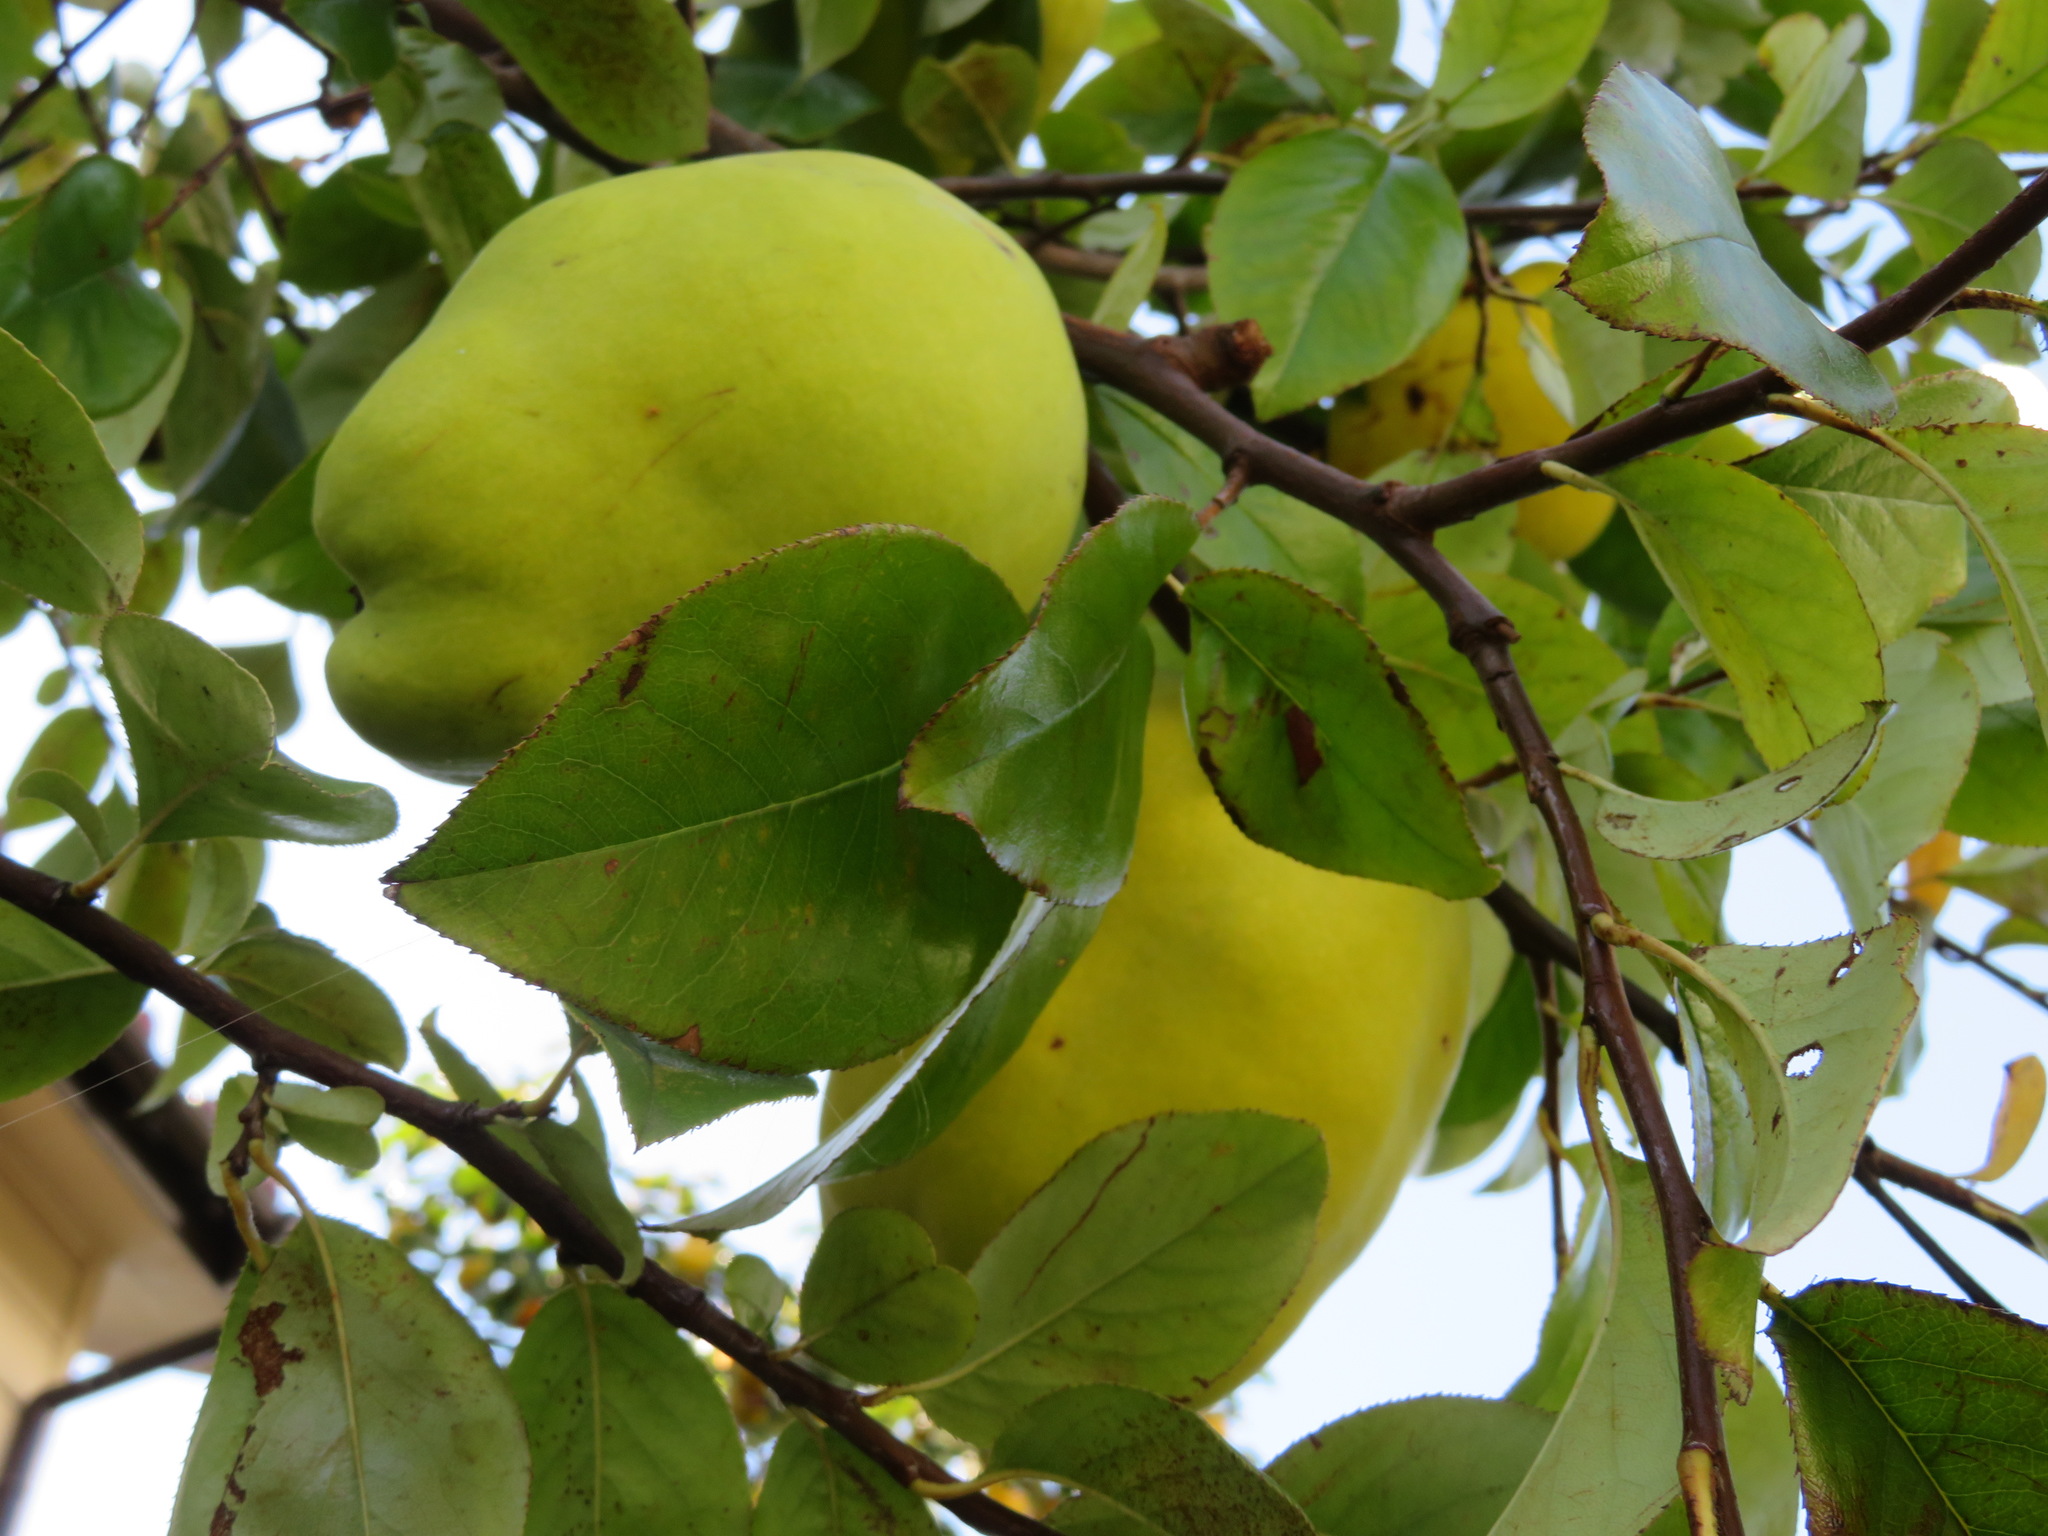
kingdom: Plantae
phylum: Tracheophyta
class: Magnoliopsida
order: Rosales
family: Rosaceae
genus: Pseudocydonia
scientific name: Pseudocydonia sinensis
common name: Chinese-quince
